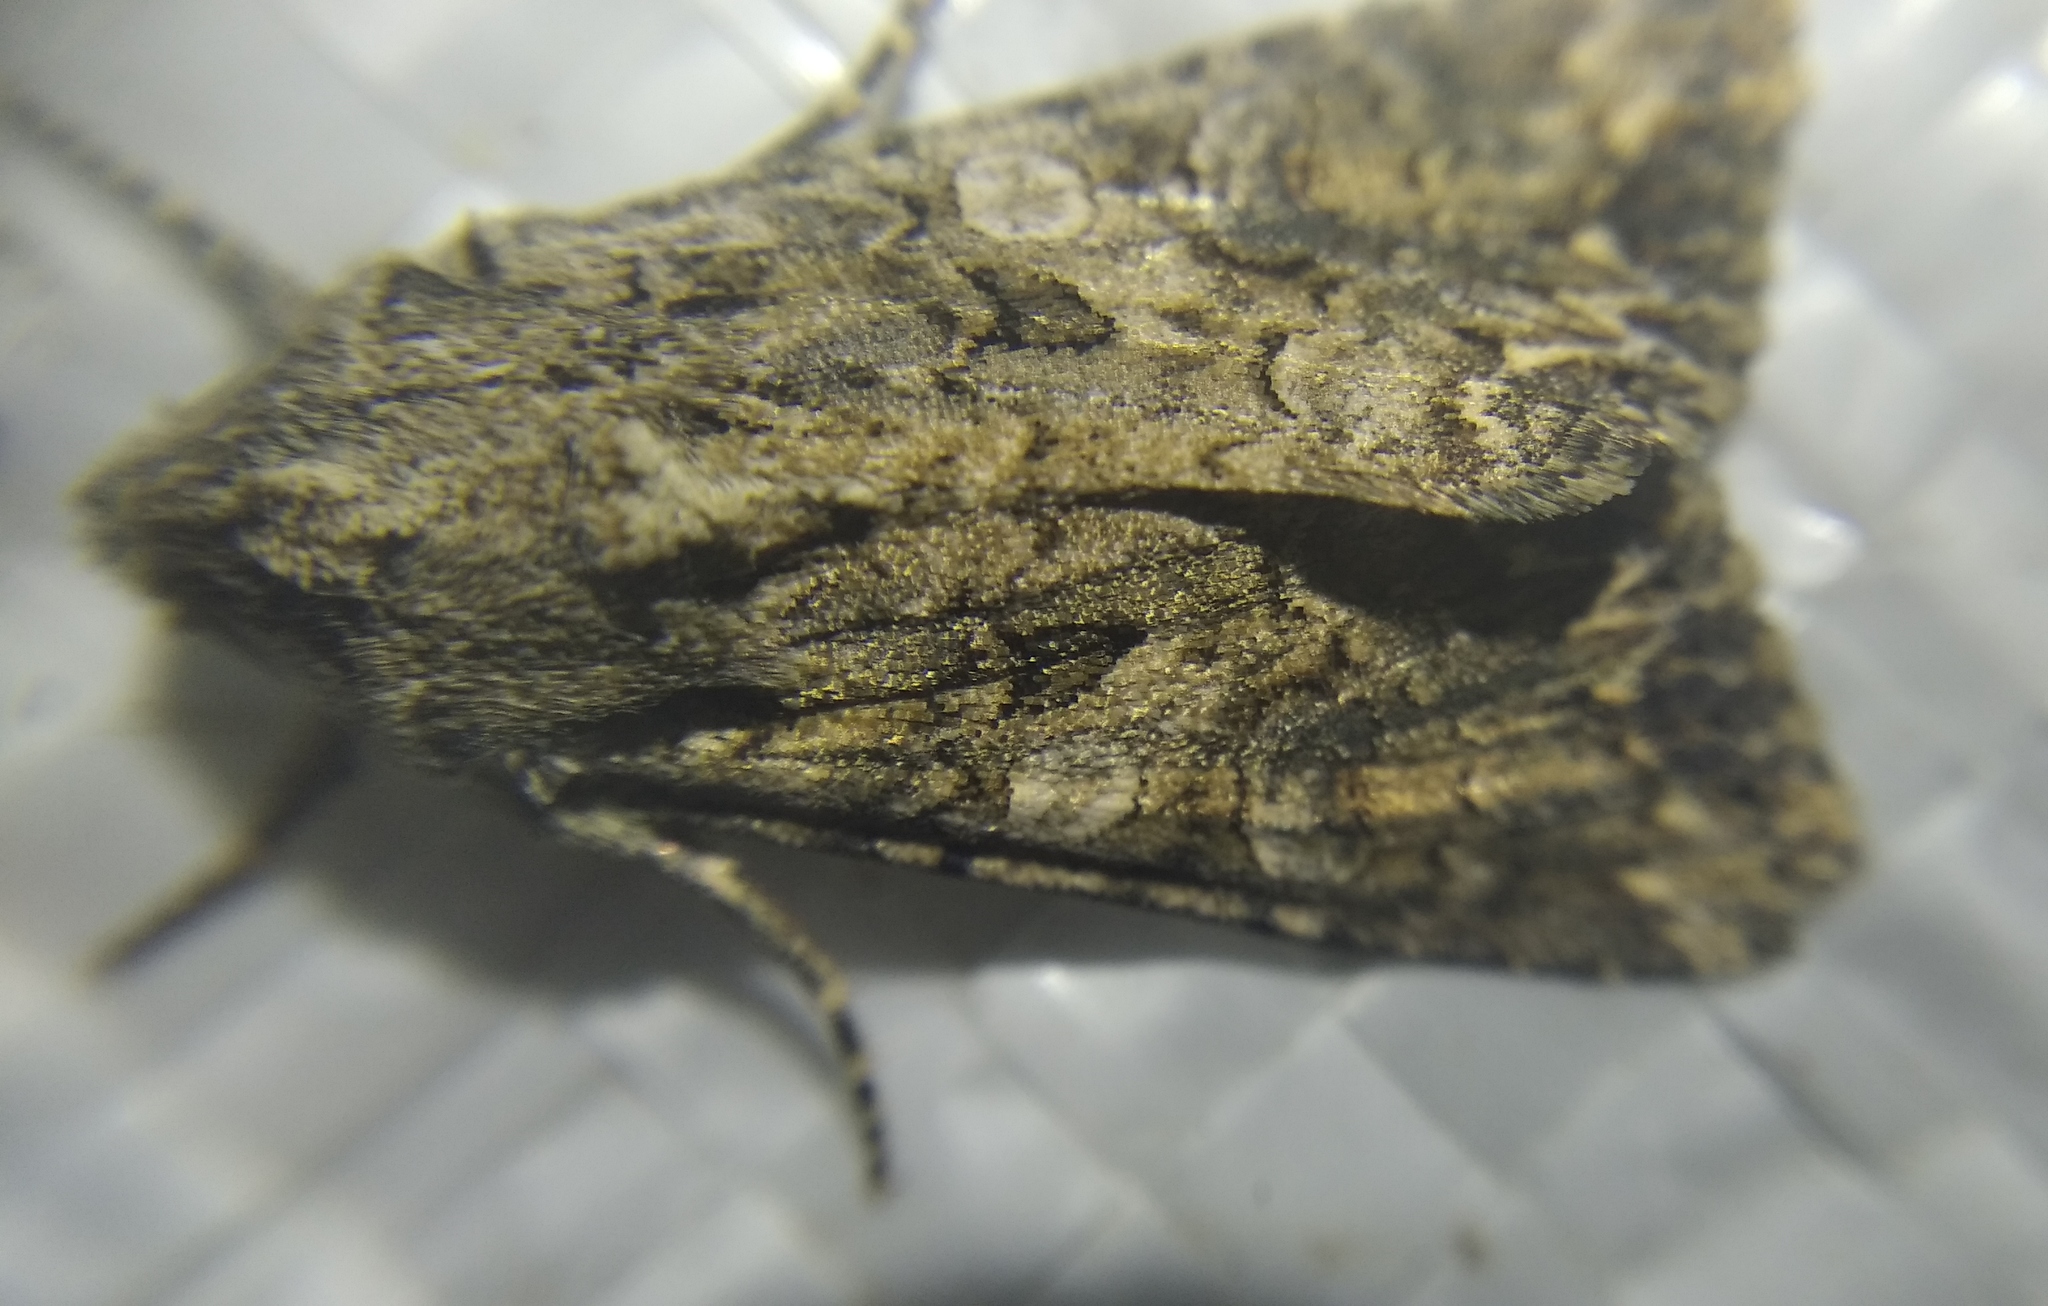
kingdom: Animalia
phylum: Arthropoda
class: Insecta
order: Lepidoptera
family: Noctuidae
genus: Anarta
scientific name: Anarta trifolii
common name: Clover cutworm moth
